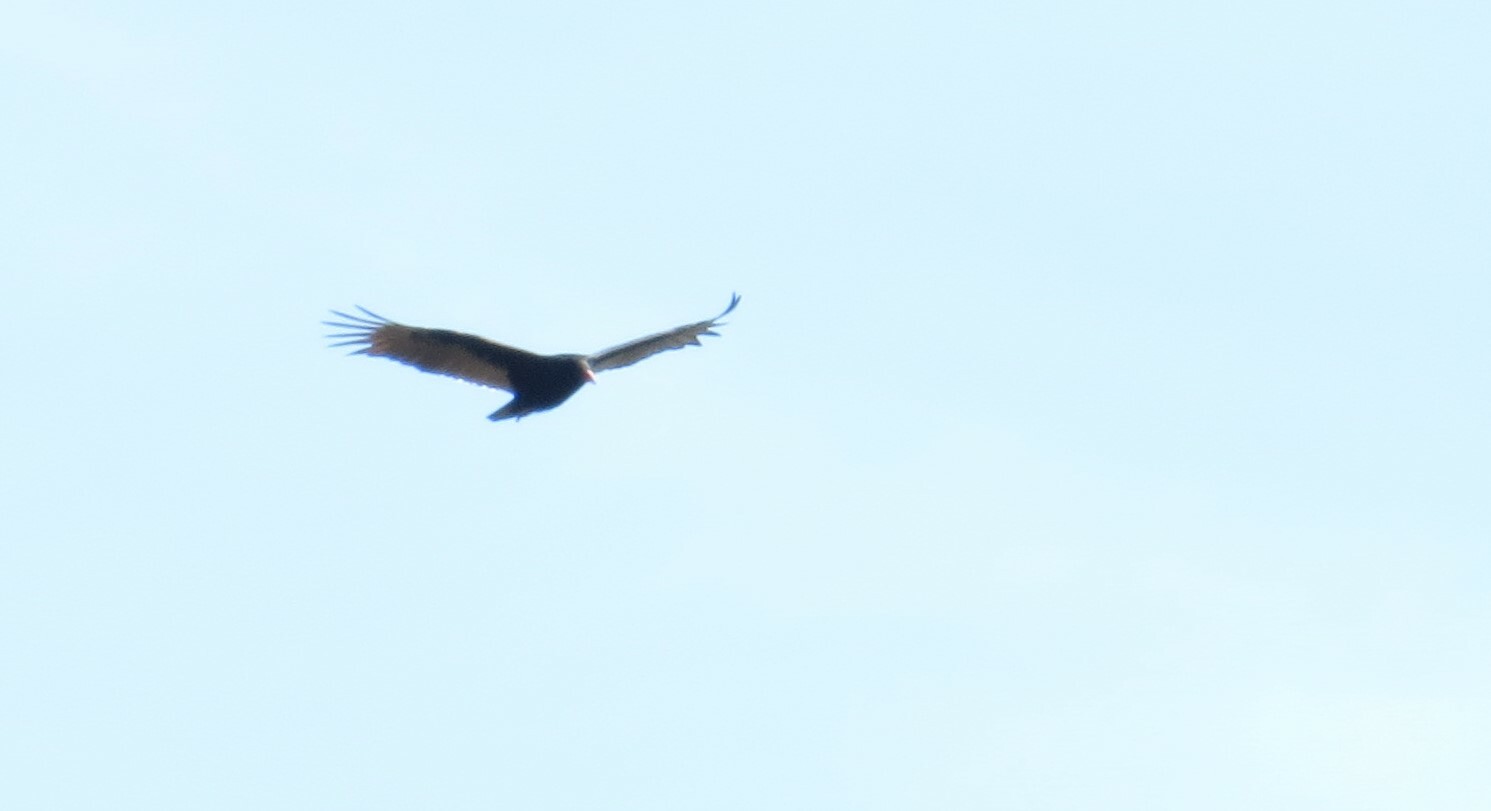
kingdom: Animalia
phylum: Chordata
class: Aves
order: Accipitriformes
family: Cathartidae
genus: Cathartes
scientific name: Cathartes aura
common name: Turkey vulture
